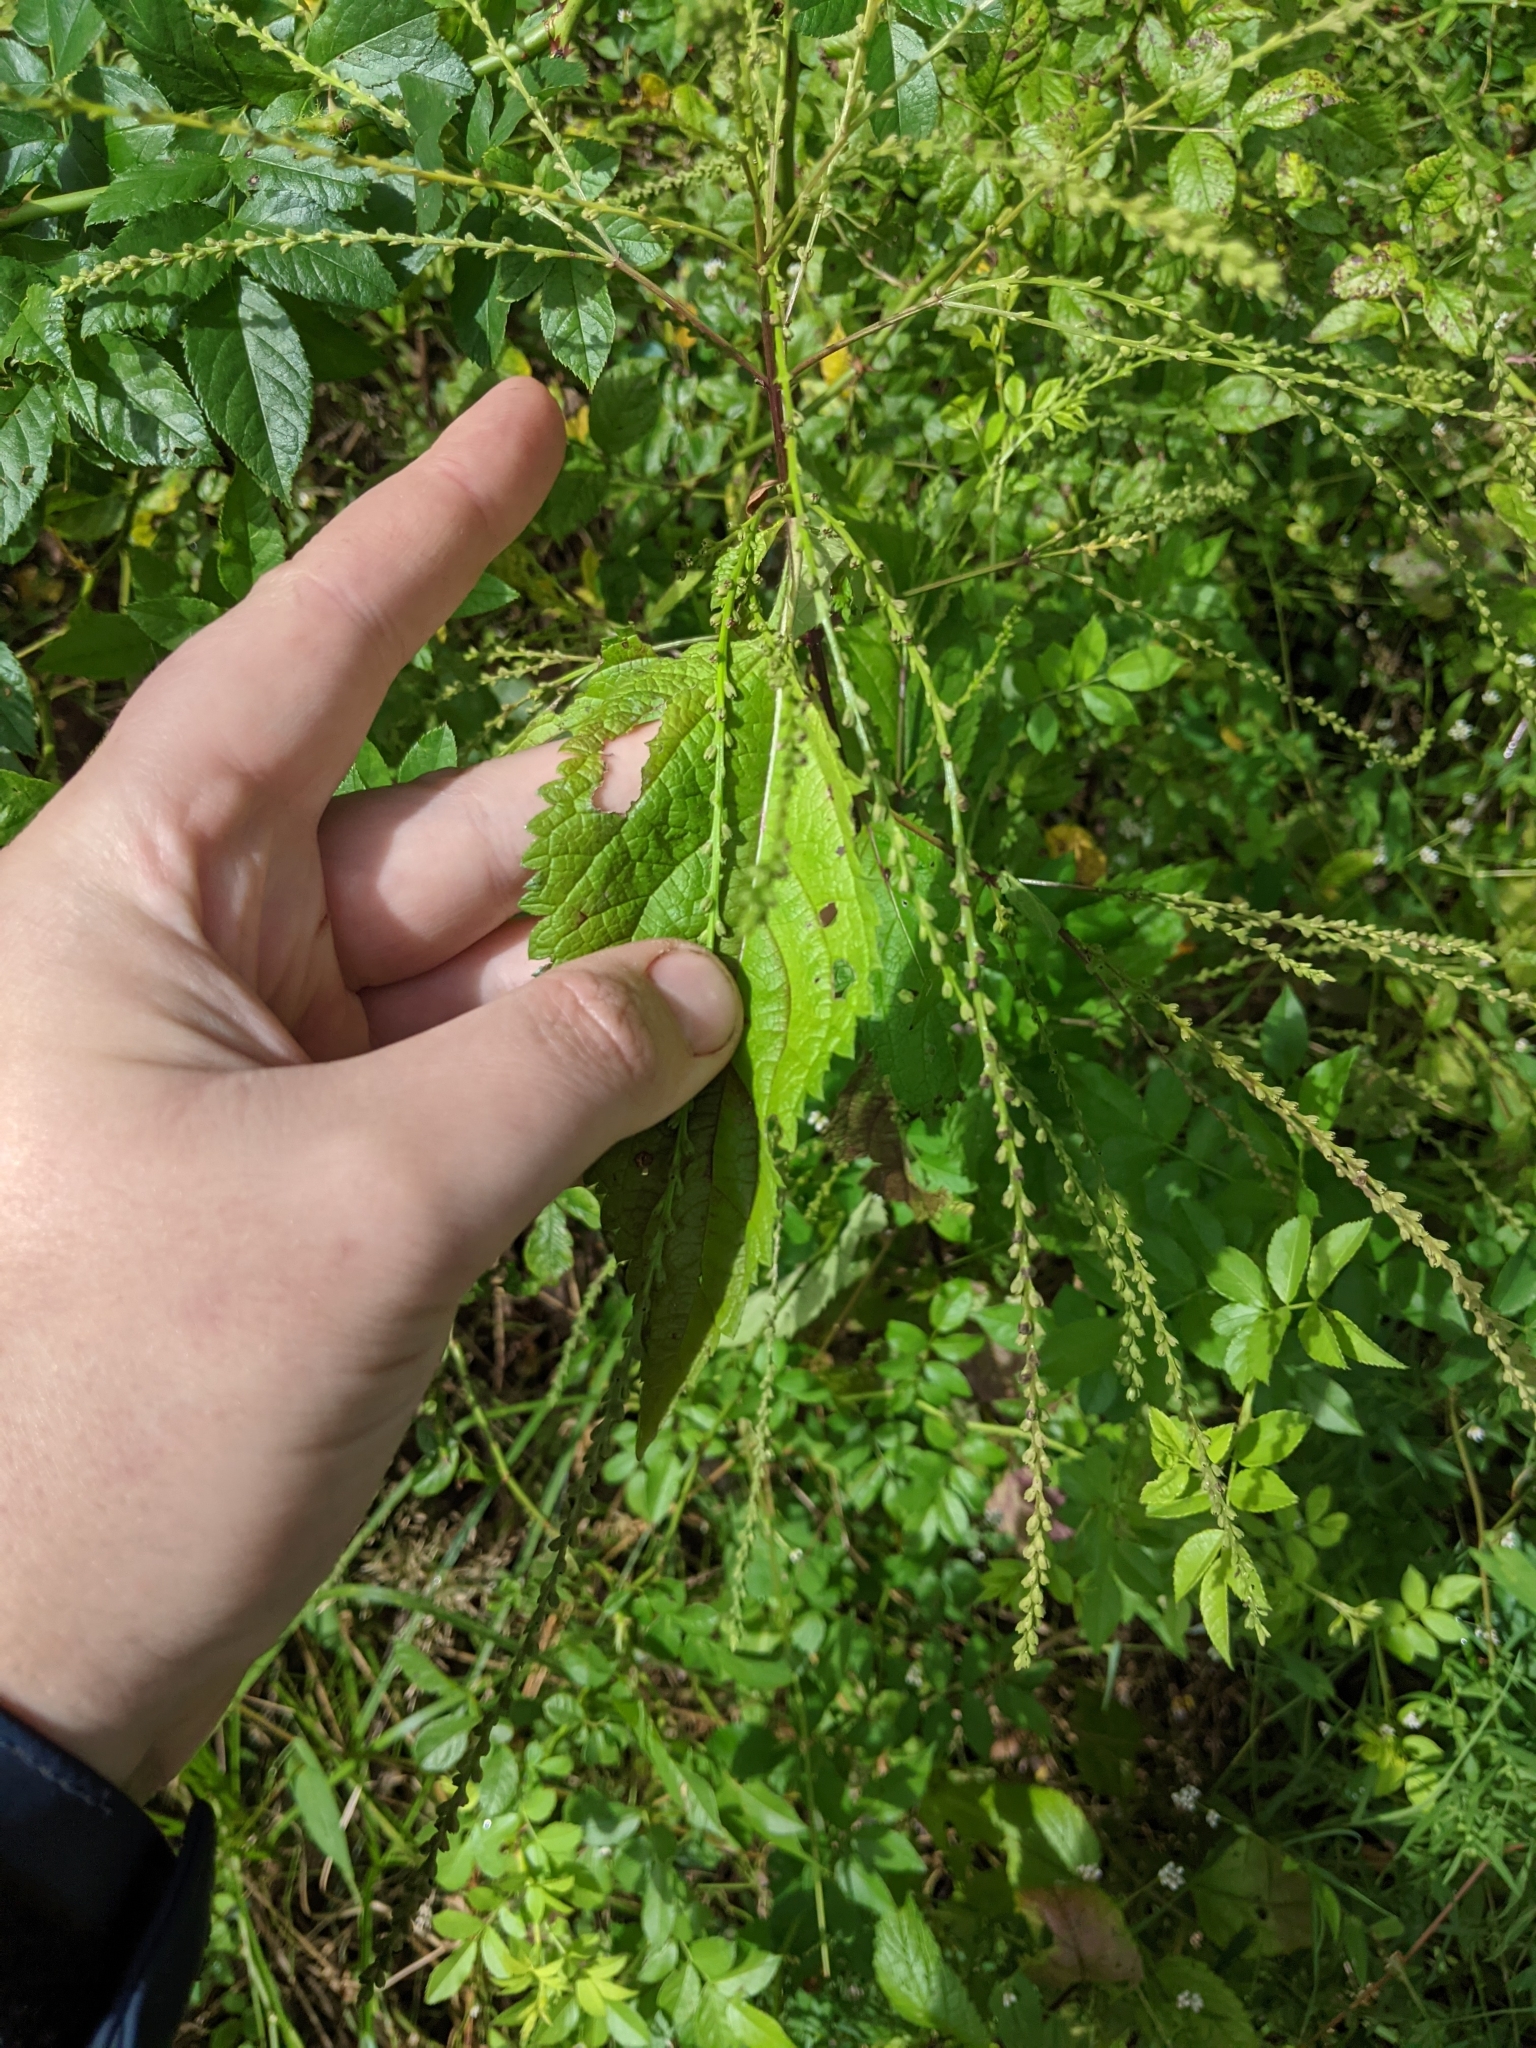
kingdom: Plantae
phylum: Tracheophyta
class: Magnoliopsida
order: Lamiales
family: Verbenaceae
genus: Verbena
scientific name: Verbena urticifolia
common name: Nettle-leaved vervain
